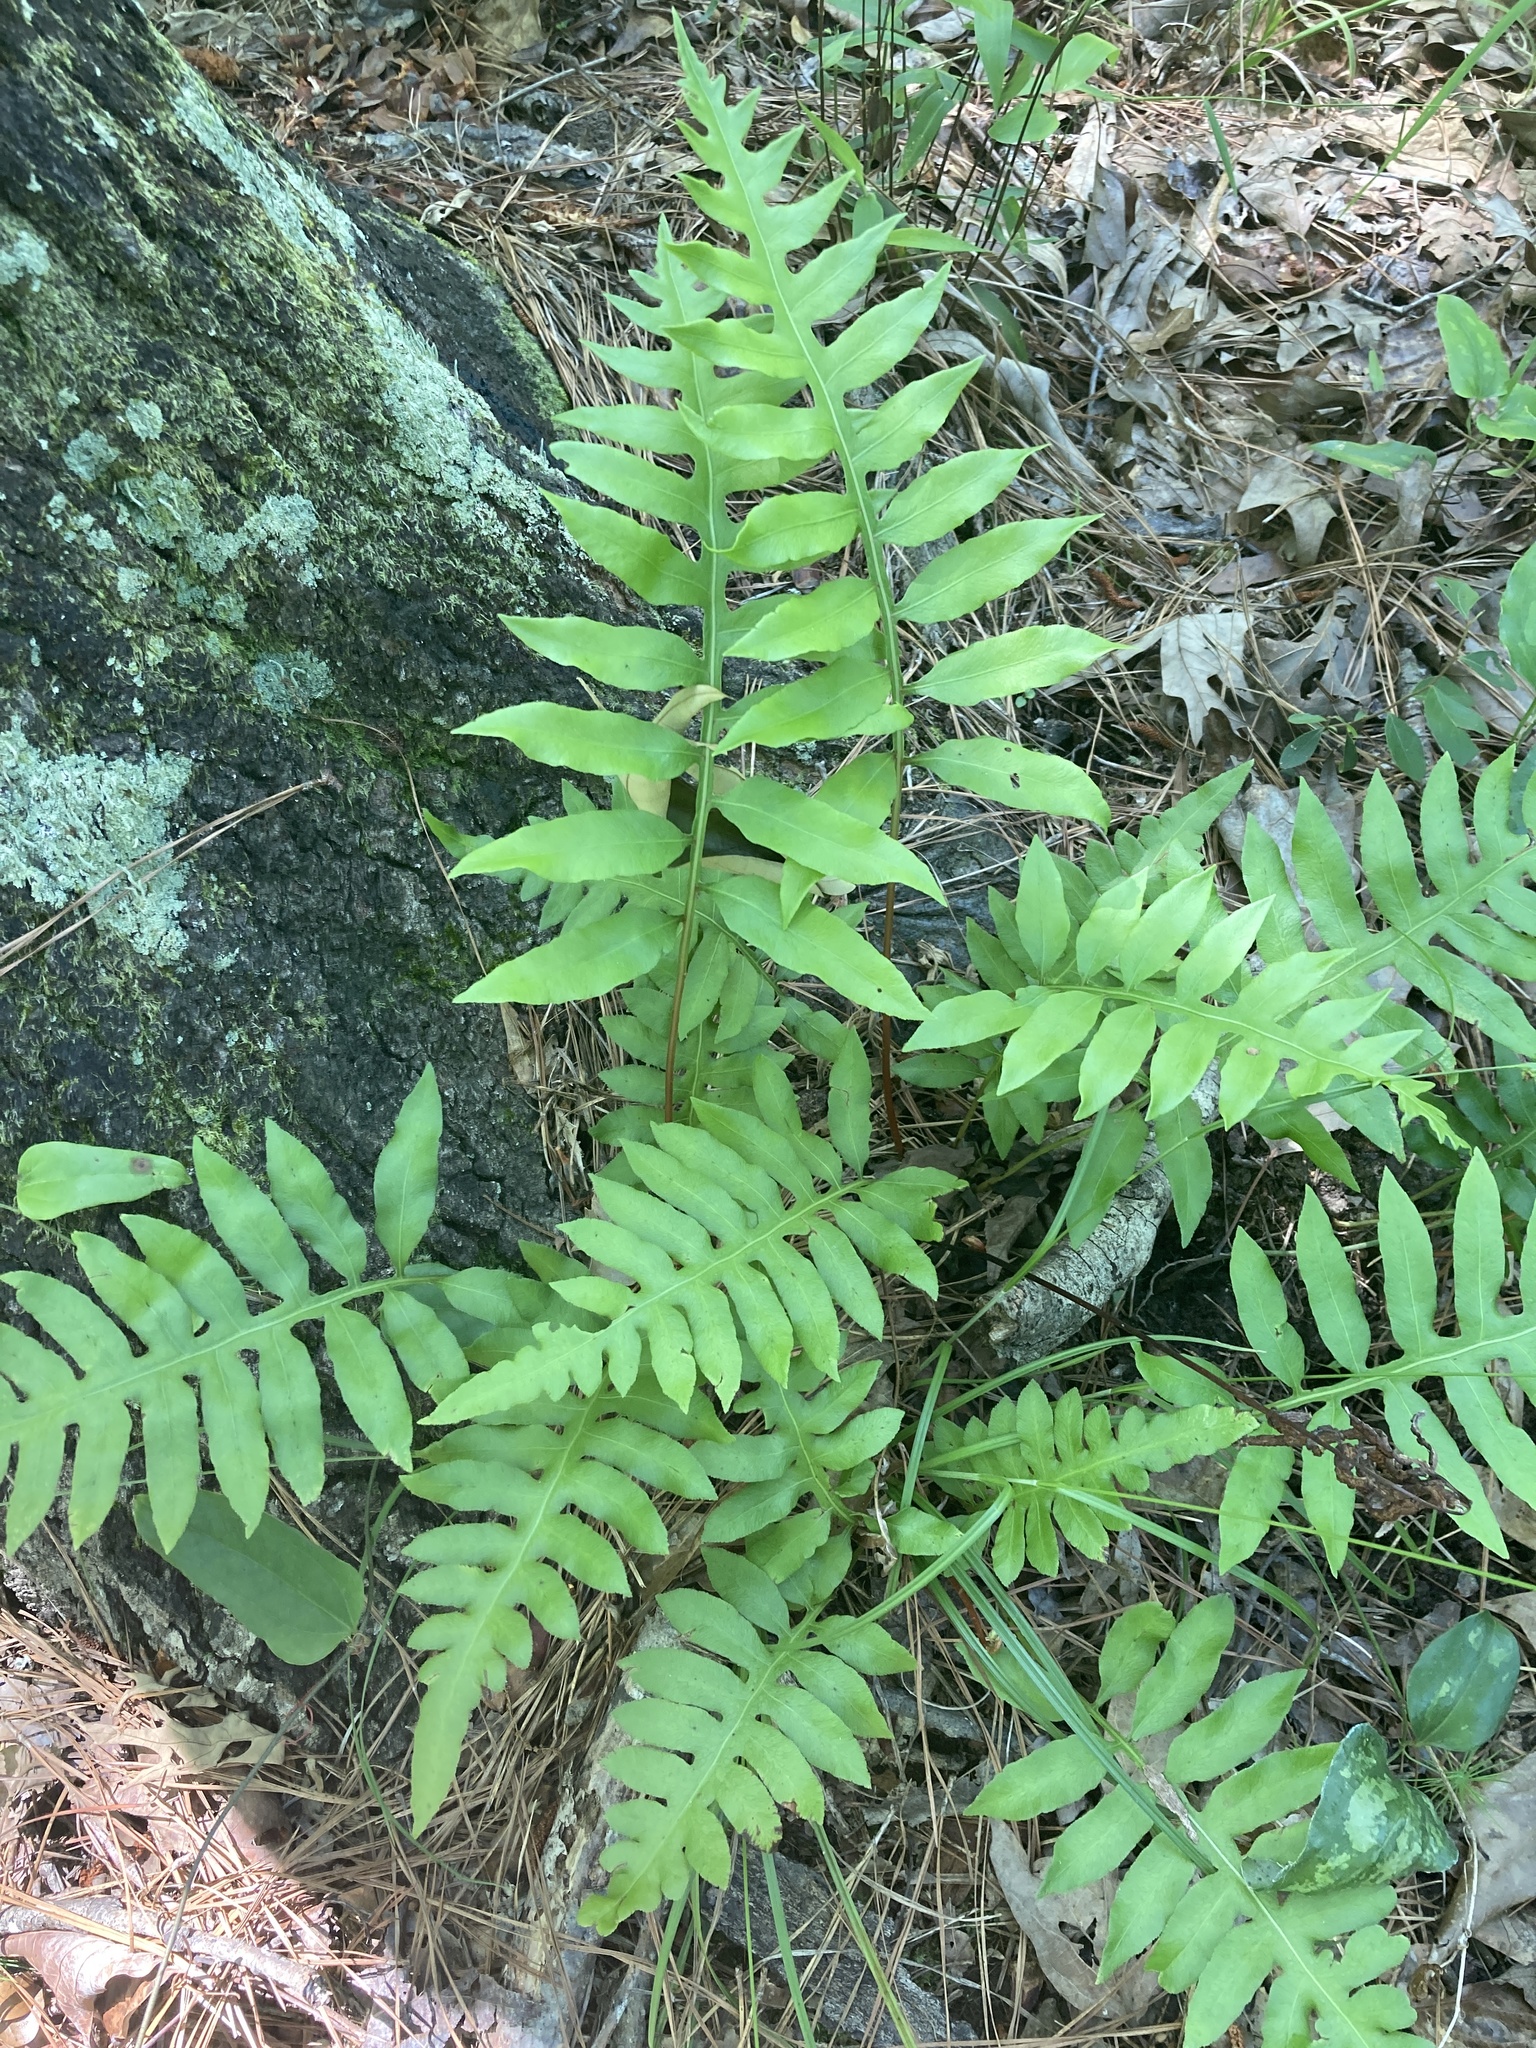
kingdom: Plantae
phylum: Tracheophyta
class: Polypodiopsida
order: Polypodiales
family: Blechnaceae
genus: Lorinseria
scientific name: Lorinseria areolata
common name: Dwarf chain fern
